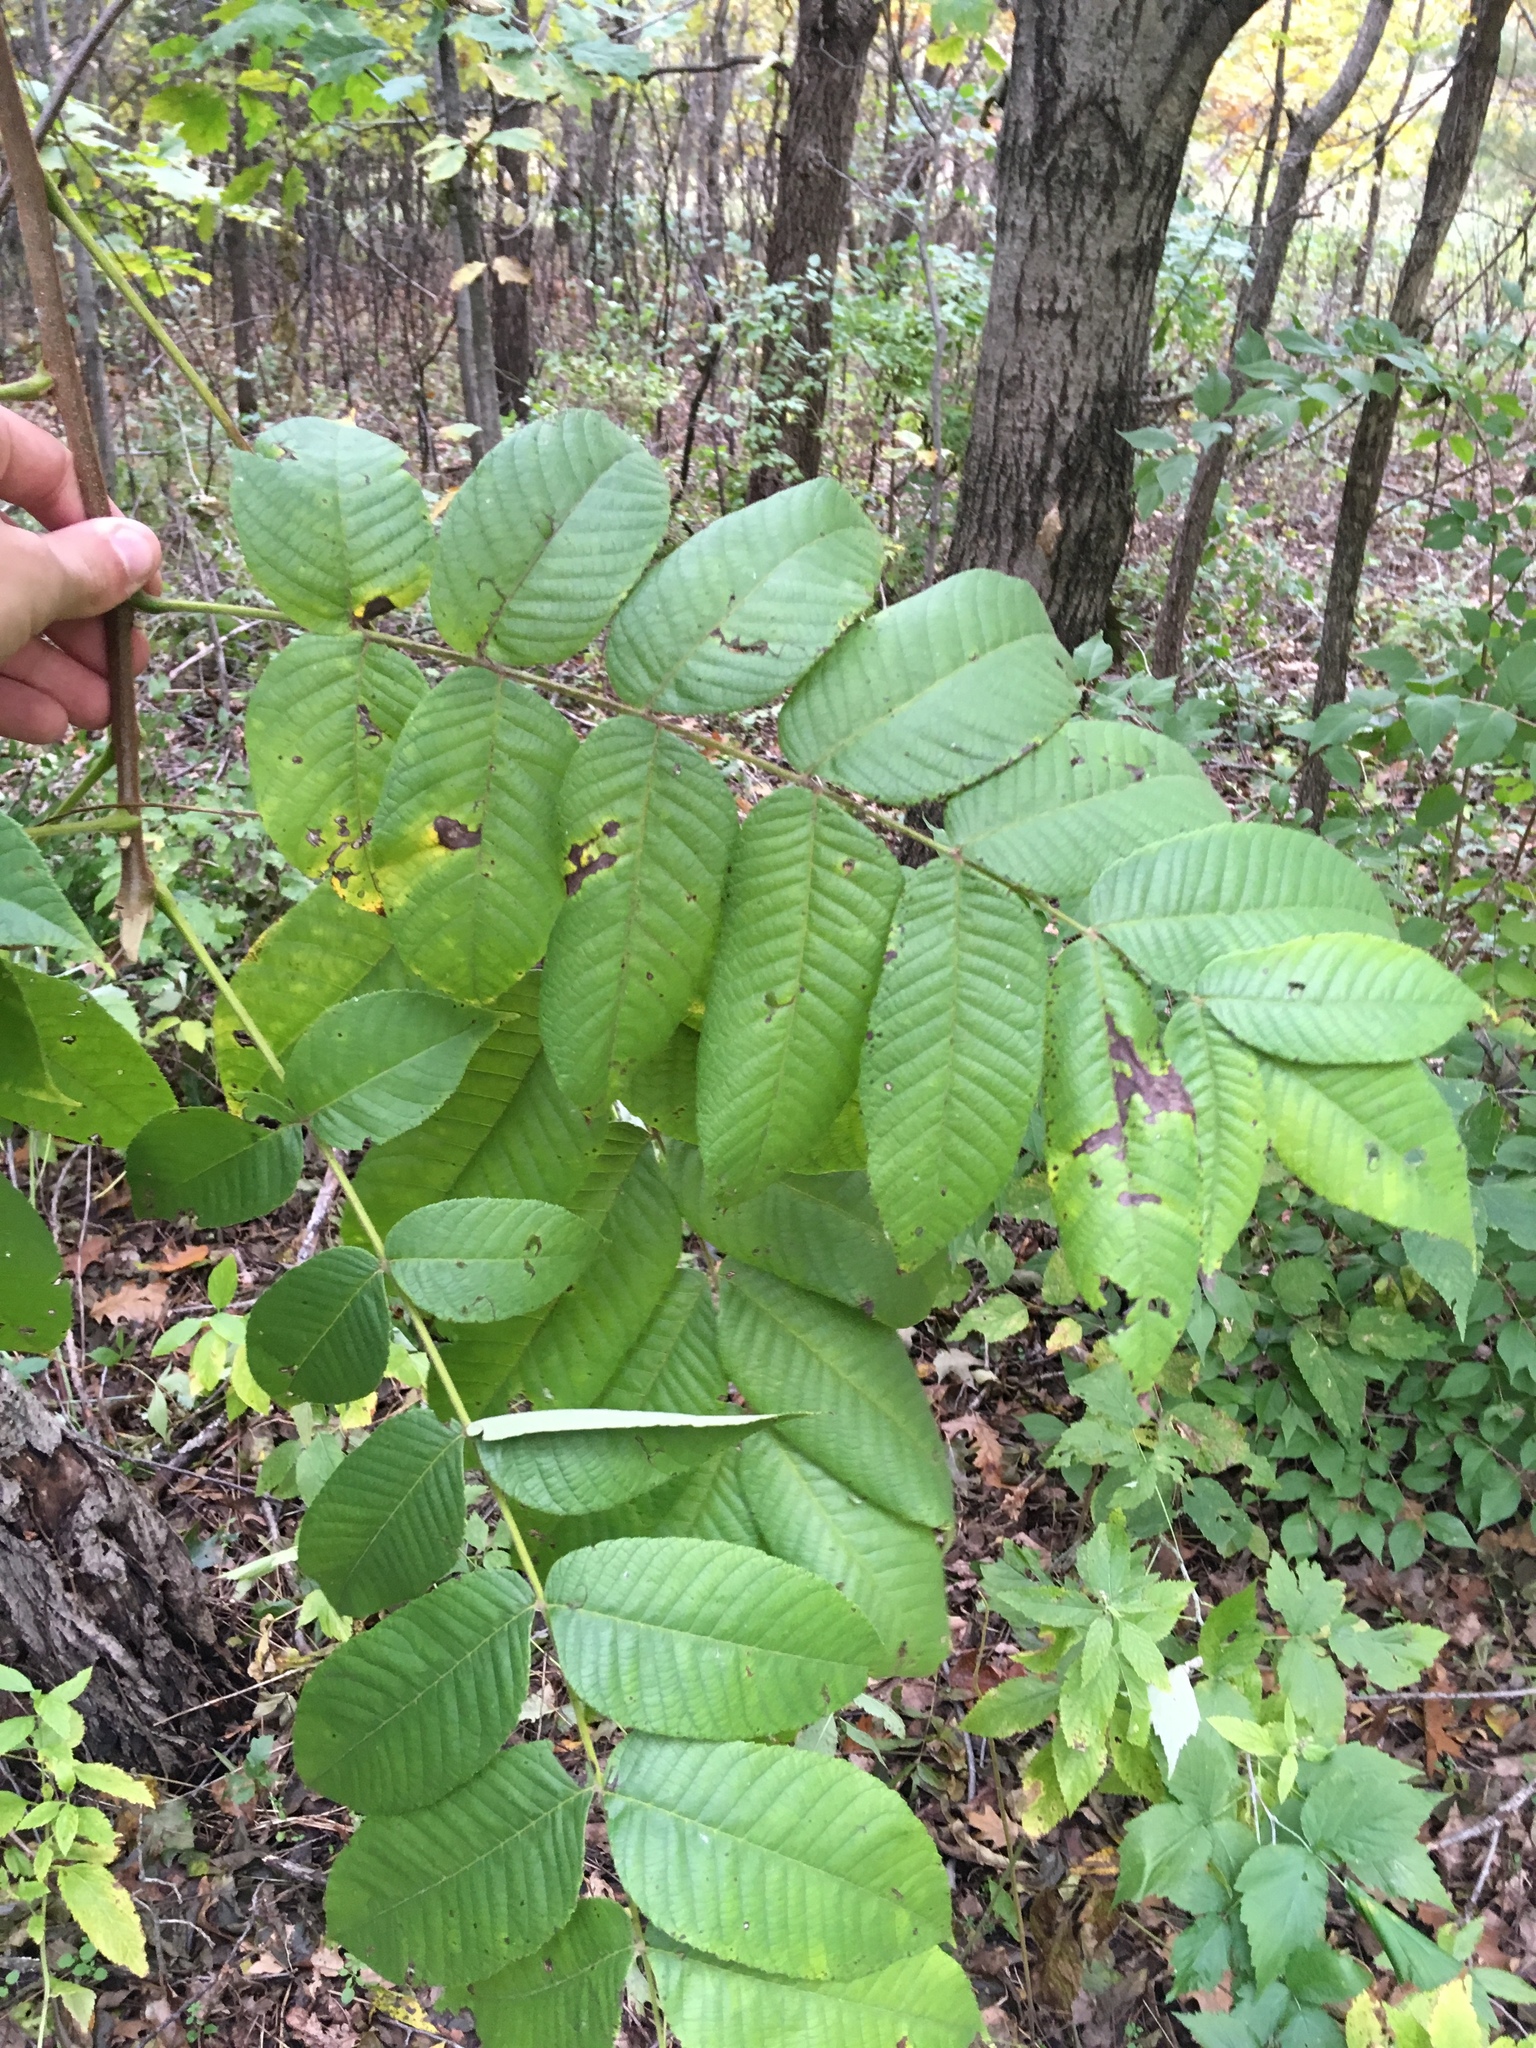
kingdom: Plantae
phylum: Tracheophyta
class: Magnoliopsida
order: Fagales
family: Juglandaceae
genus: Juglans
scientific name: Juglans cinerea
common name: Butternut
